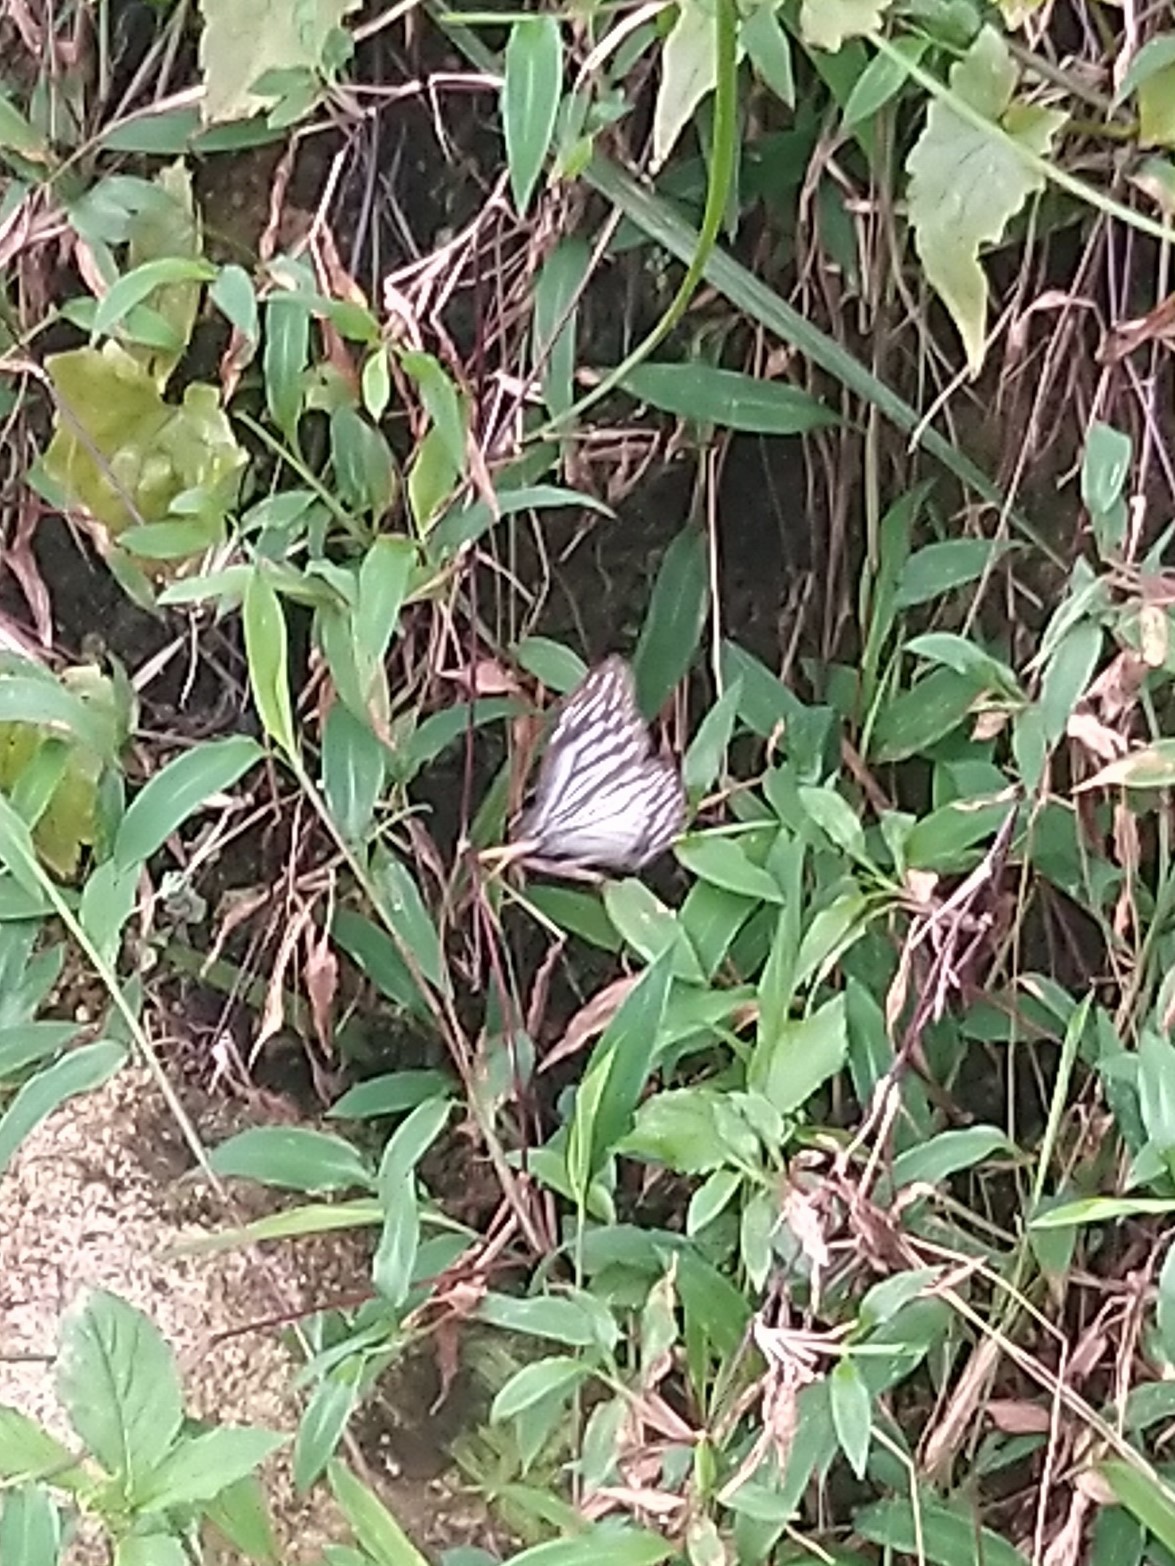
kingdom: Animalia
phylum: Arthropoda
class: Insecta
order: Lepidoptera
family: Nymphalidae
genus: Parantica
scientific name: Parantica aglea
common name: Glassy tiger
